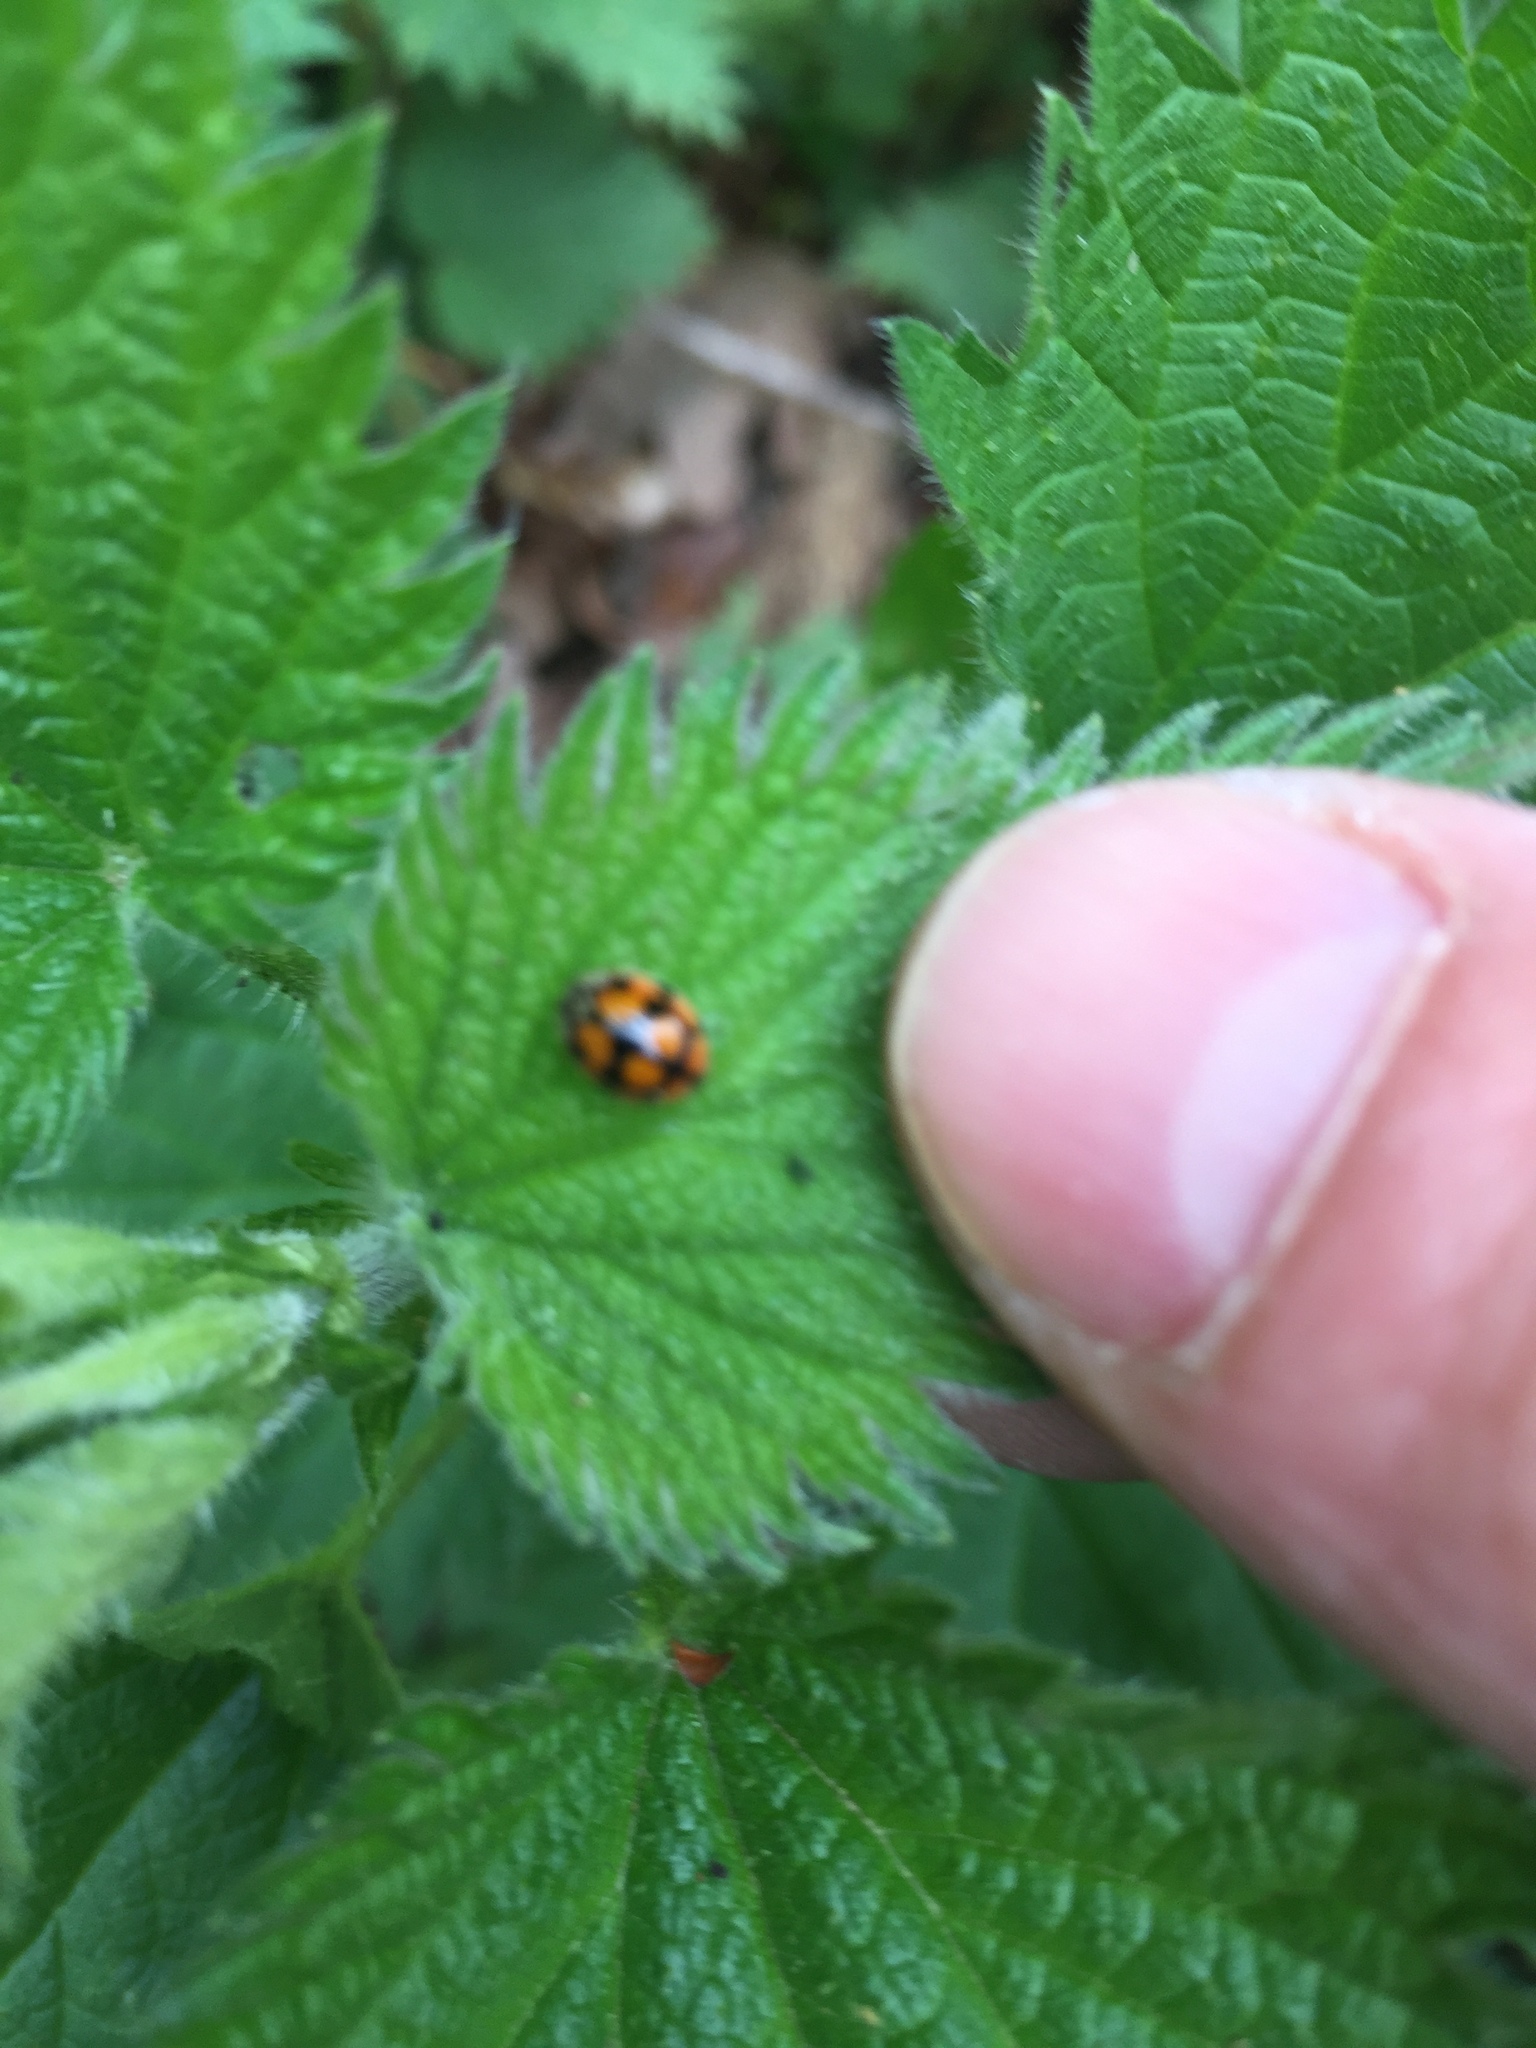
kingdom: Animalia
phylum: Arthropoda
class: Insecta
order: Coleoptera
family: Coccinellidae
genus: Adalia
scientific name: Adalia decempunctata
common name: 10-spot ladybird
